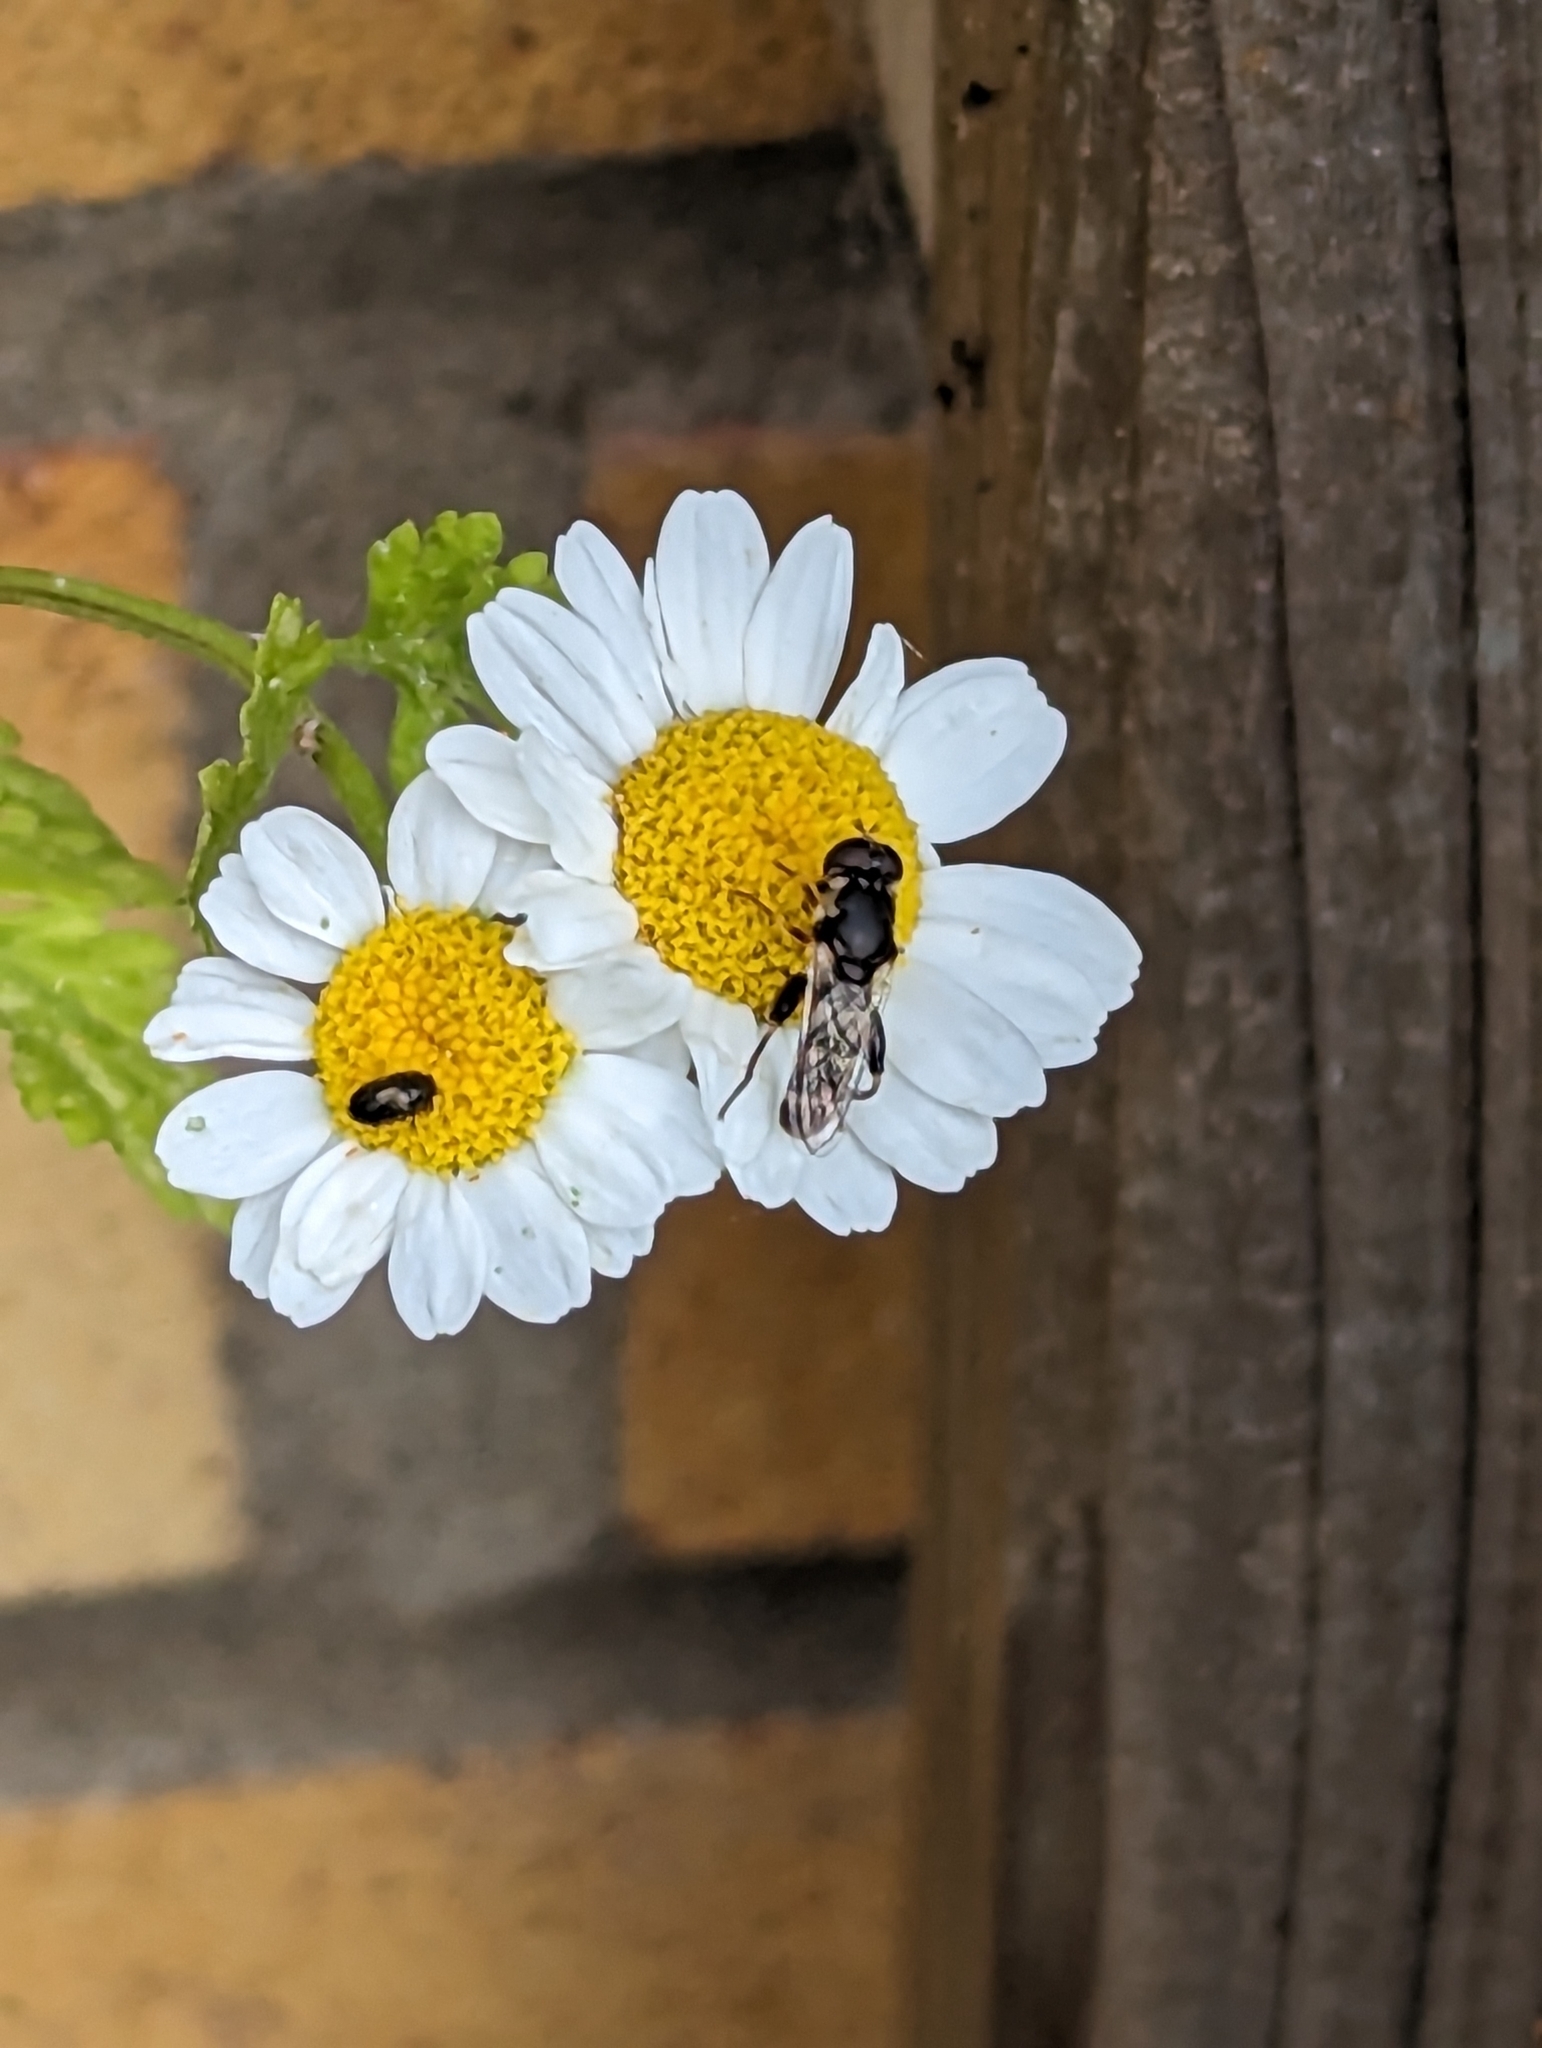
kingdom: Animalia
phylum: Arthropoda
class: Insecta
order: Diptera
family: Syrphidae
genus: Syritta
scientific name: Syritta pipiens
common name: Hover fly
